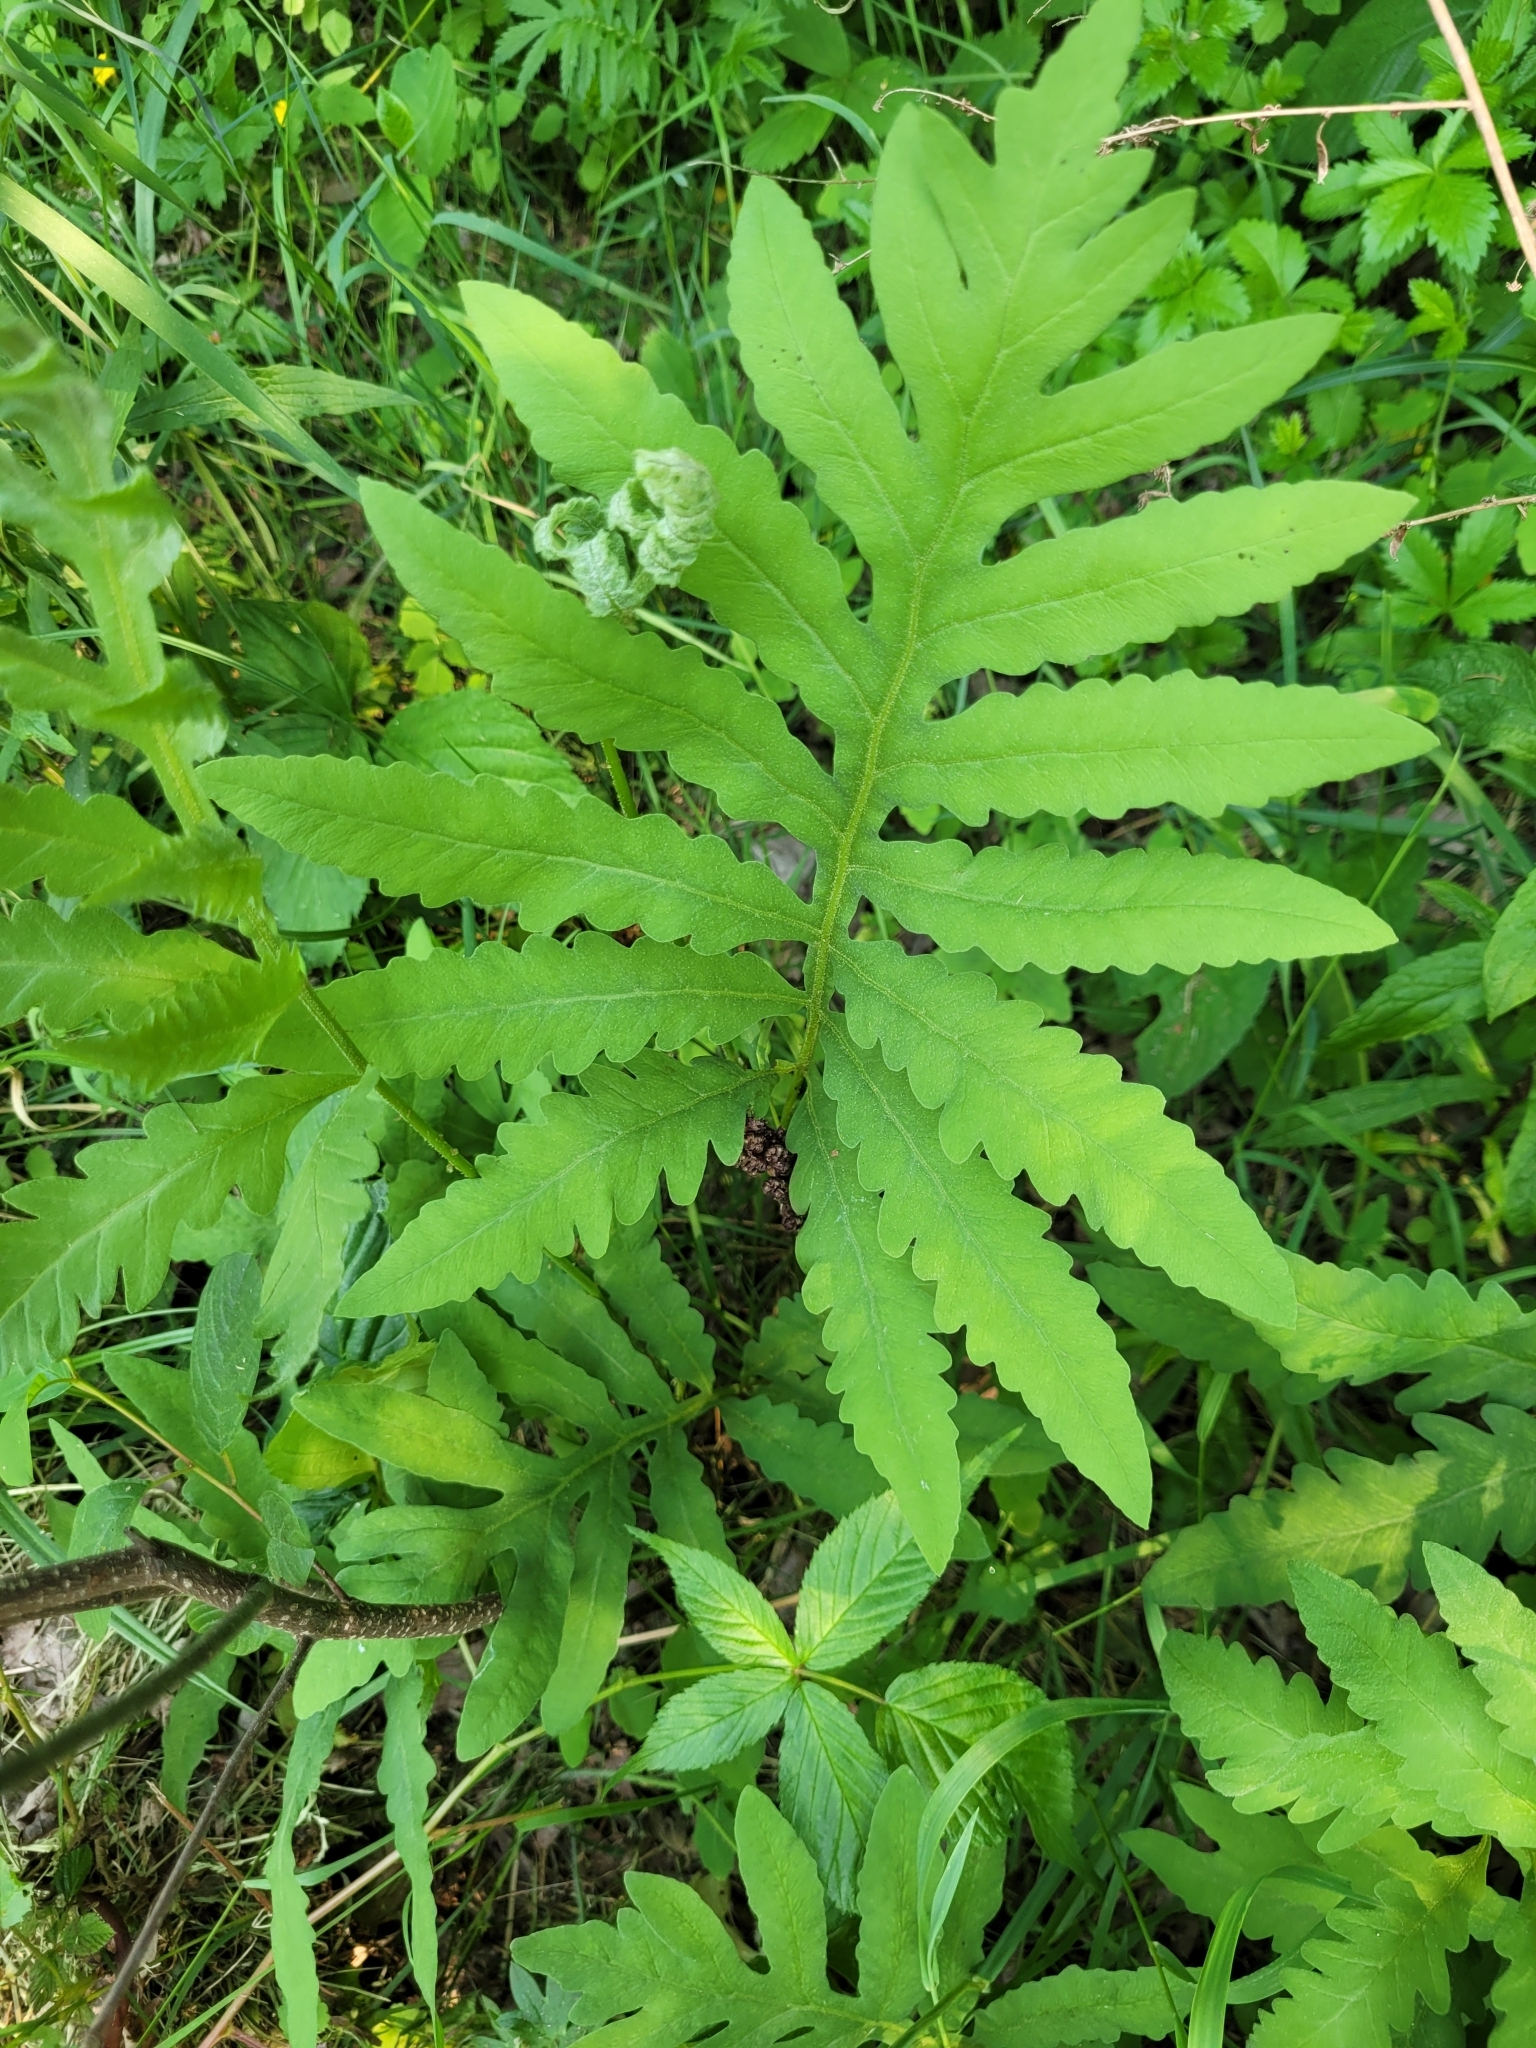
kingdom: Plantae
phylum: Tracheophyta
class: Polypodiopsida
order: Polypodiales
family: Onocleaceae
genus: Onoclea
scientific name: Onoclea sensibilis
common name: Sensitive fern
